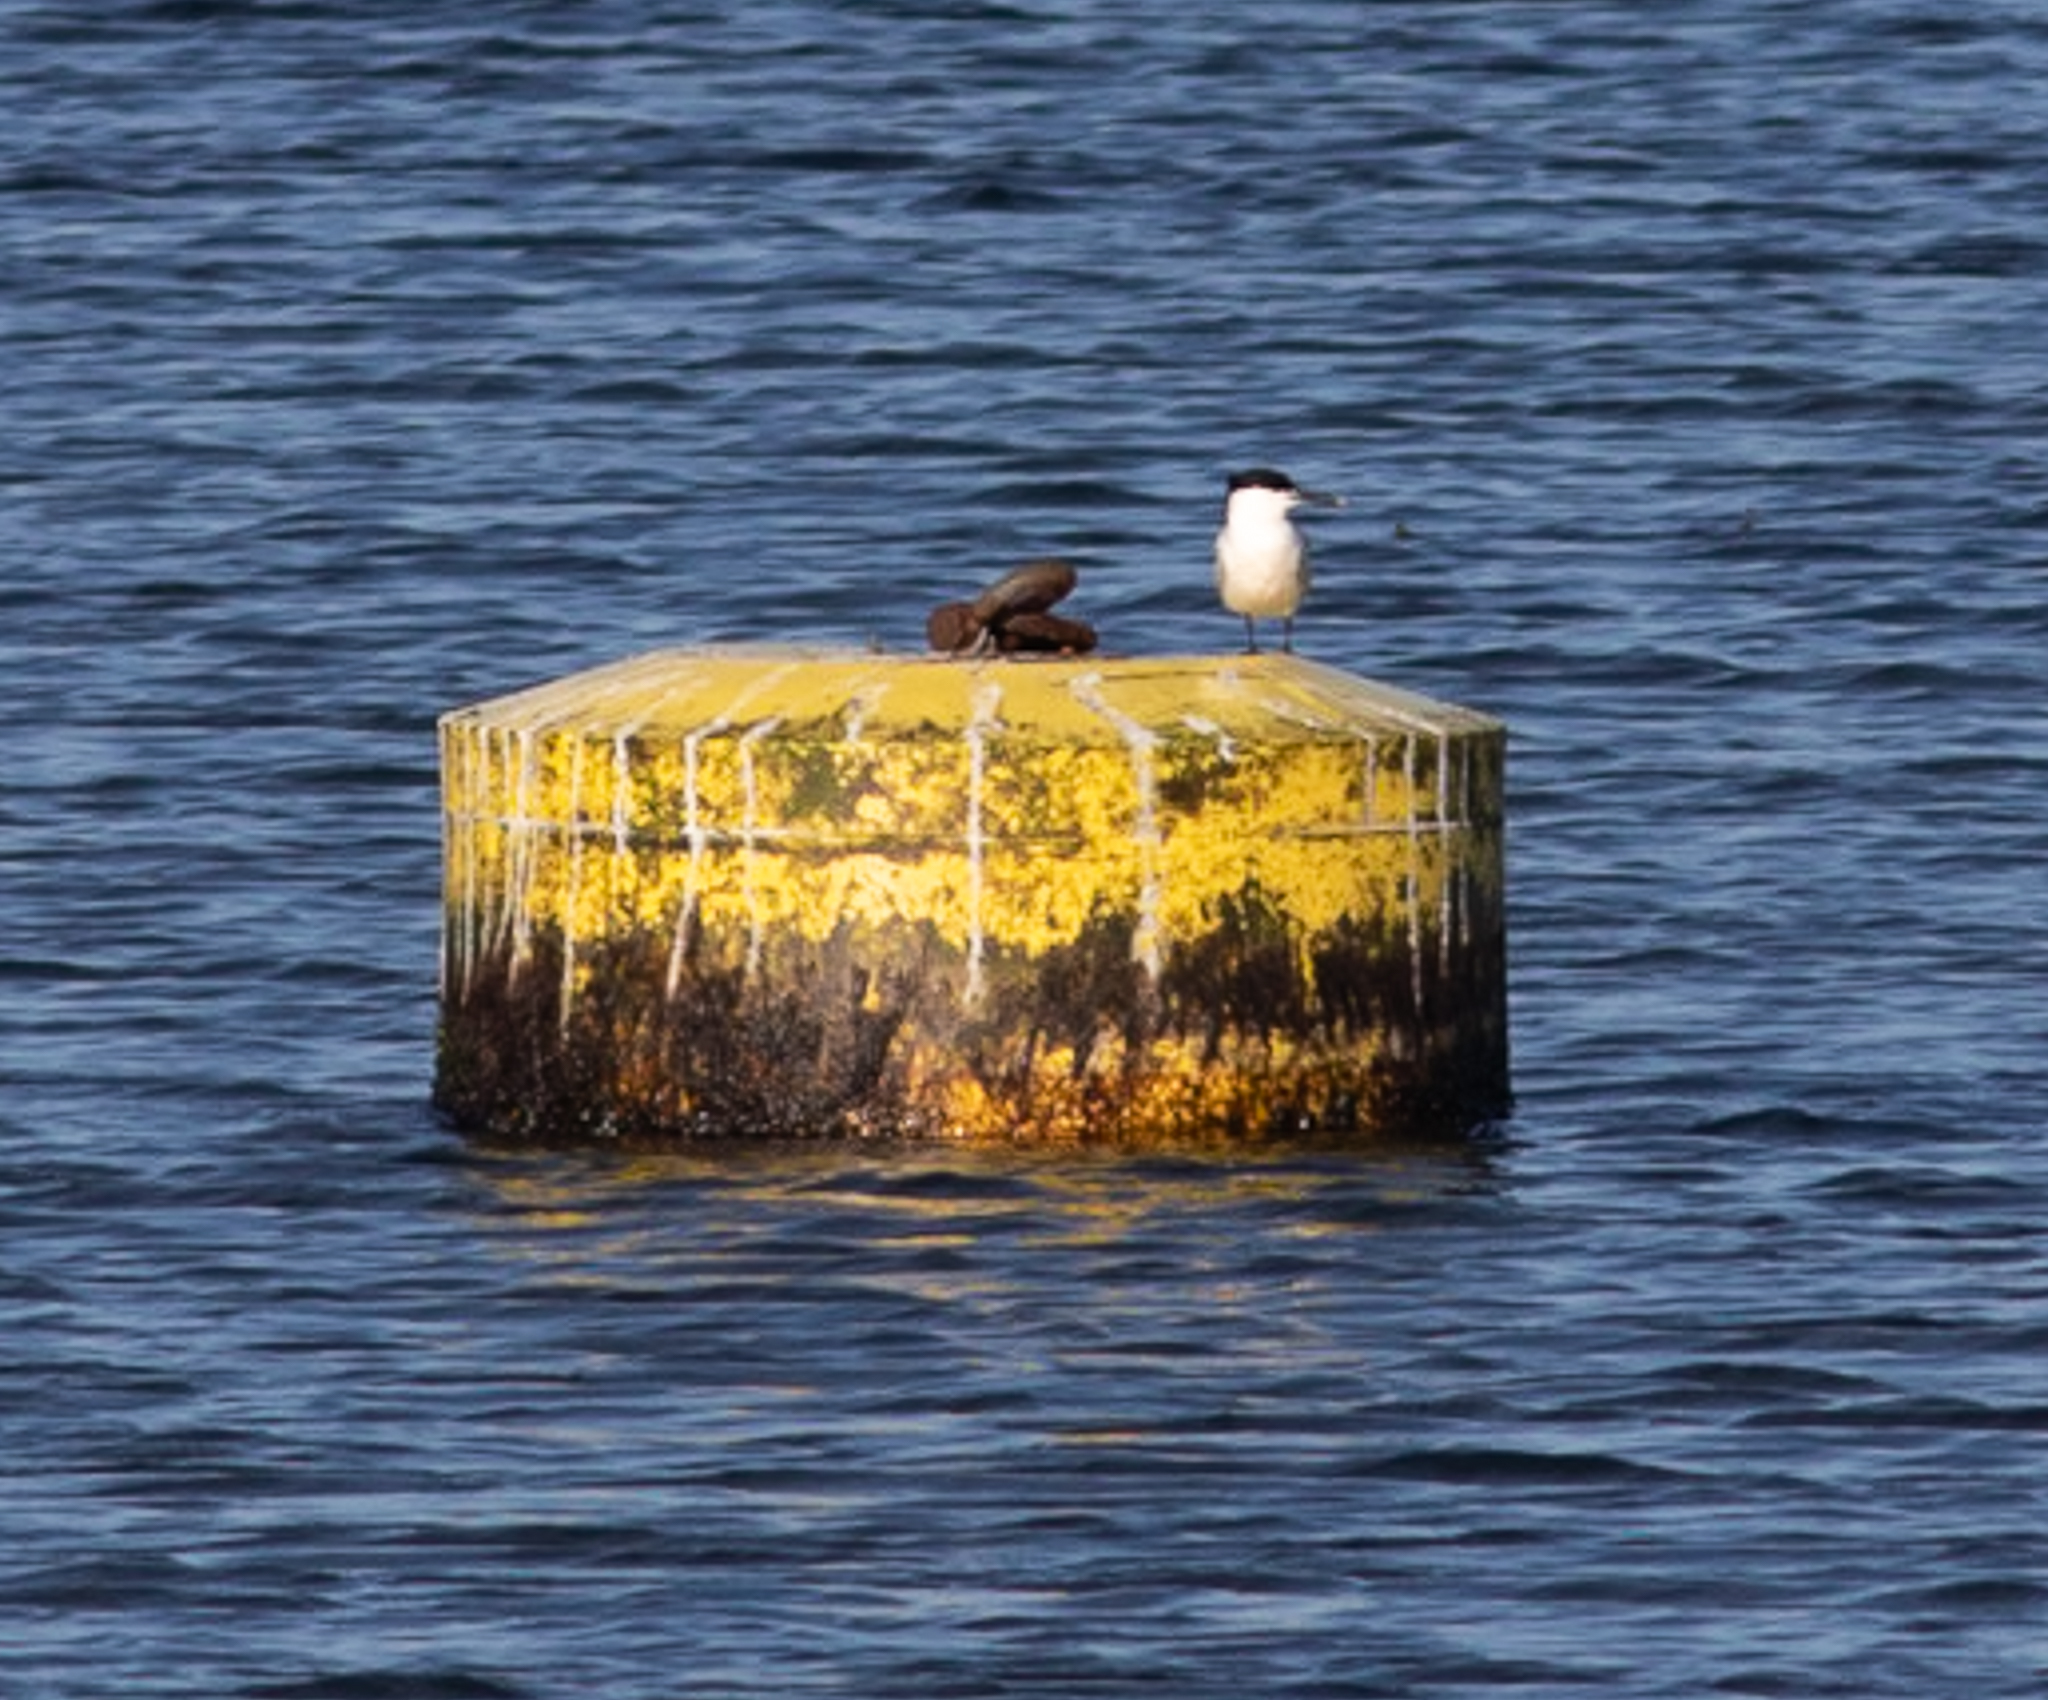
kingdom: Animalia
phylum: Chordata
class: Aves
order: Charadriiformes
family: Laridae
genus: Thalasseus
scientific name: Thalasseus sandvicensis
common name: Sandwich tern
